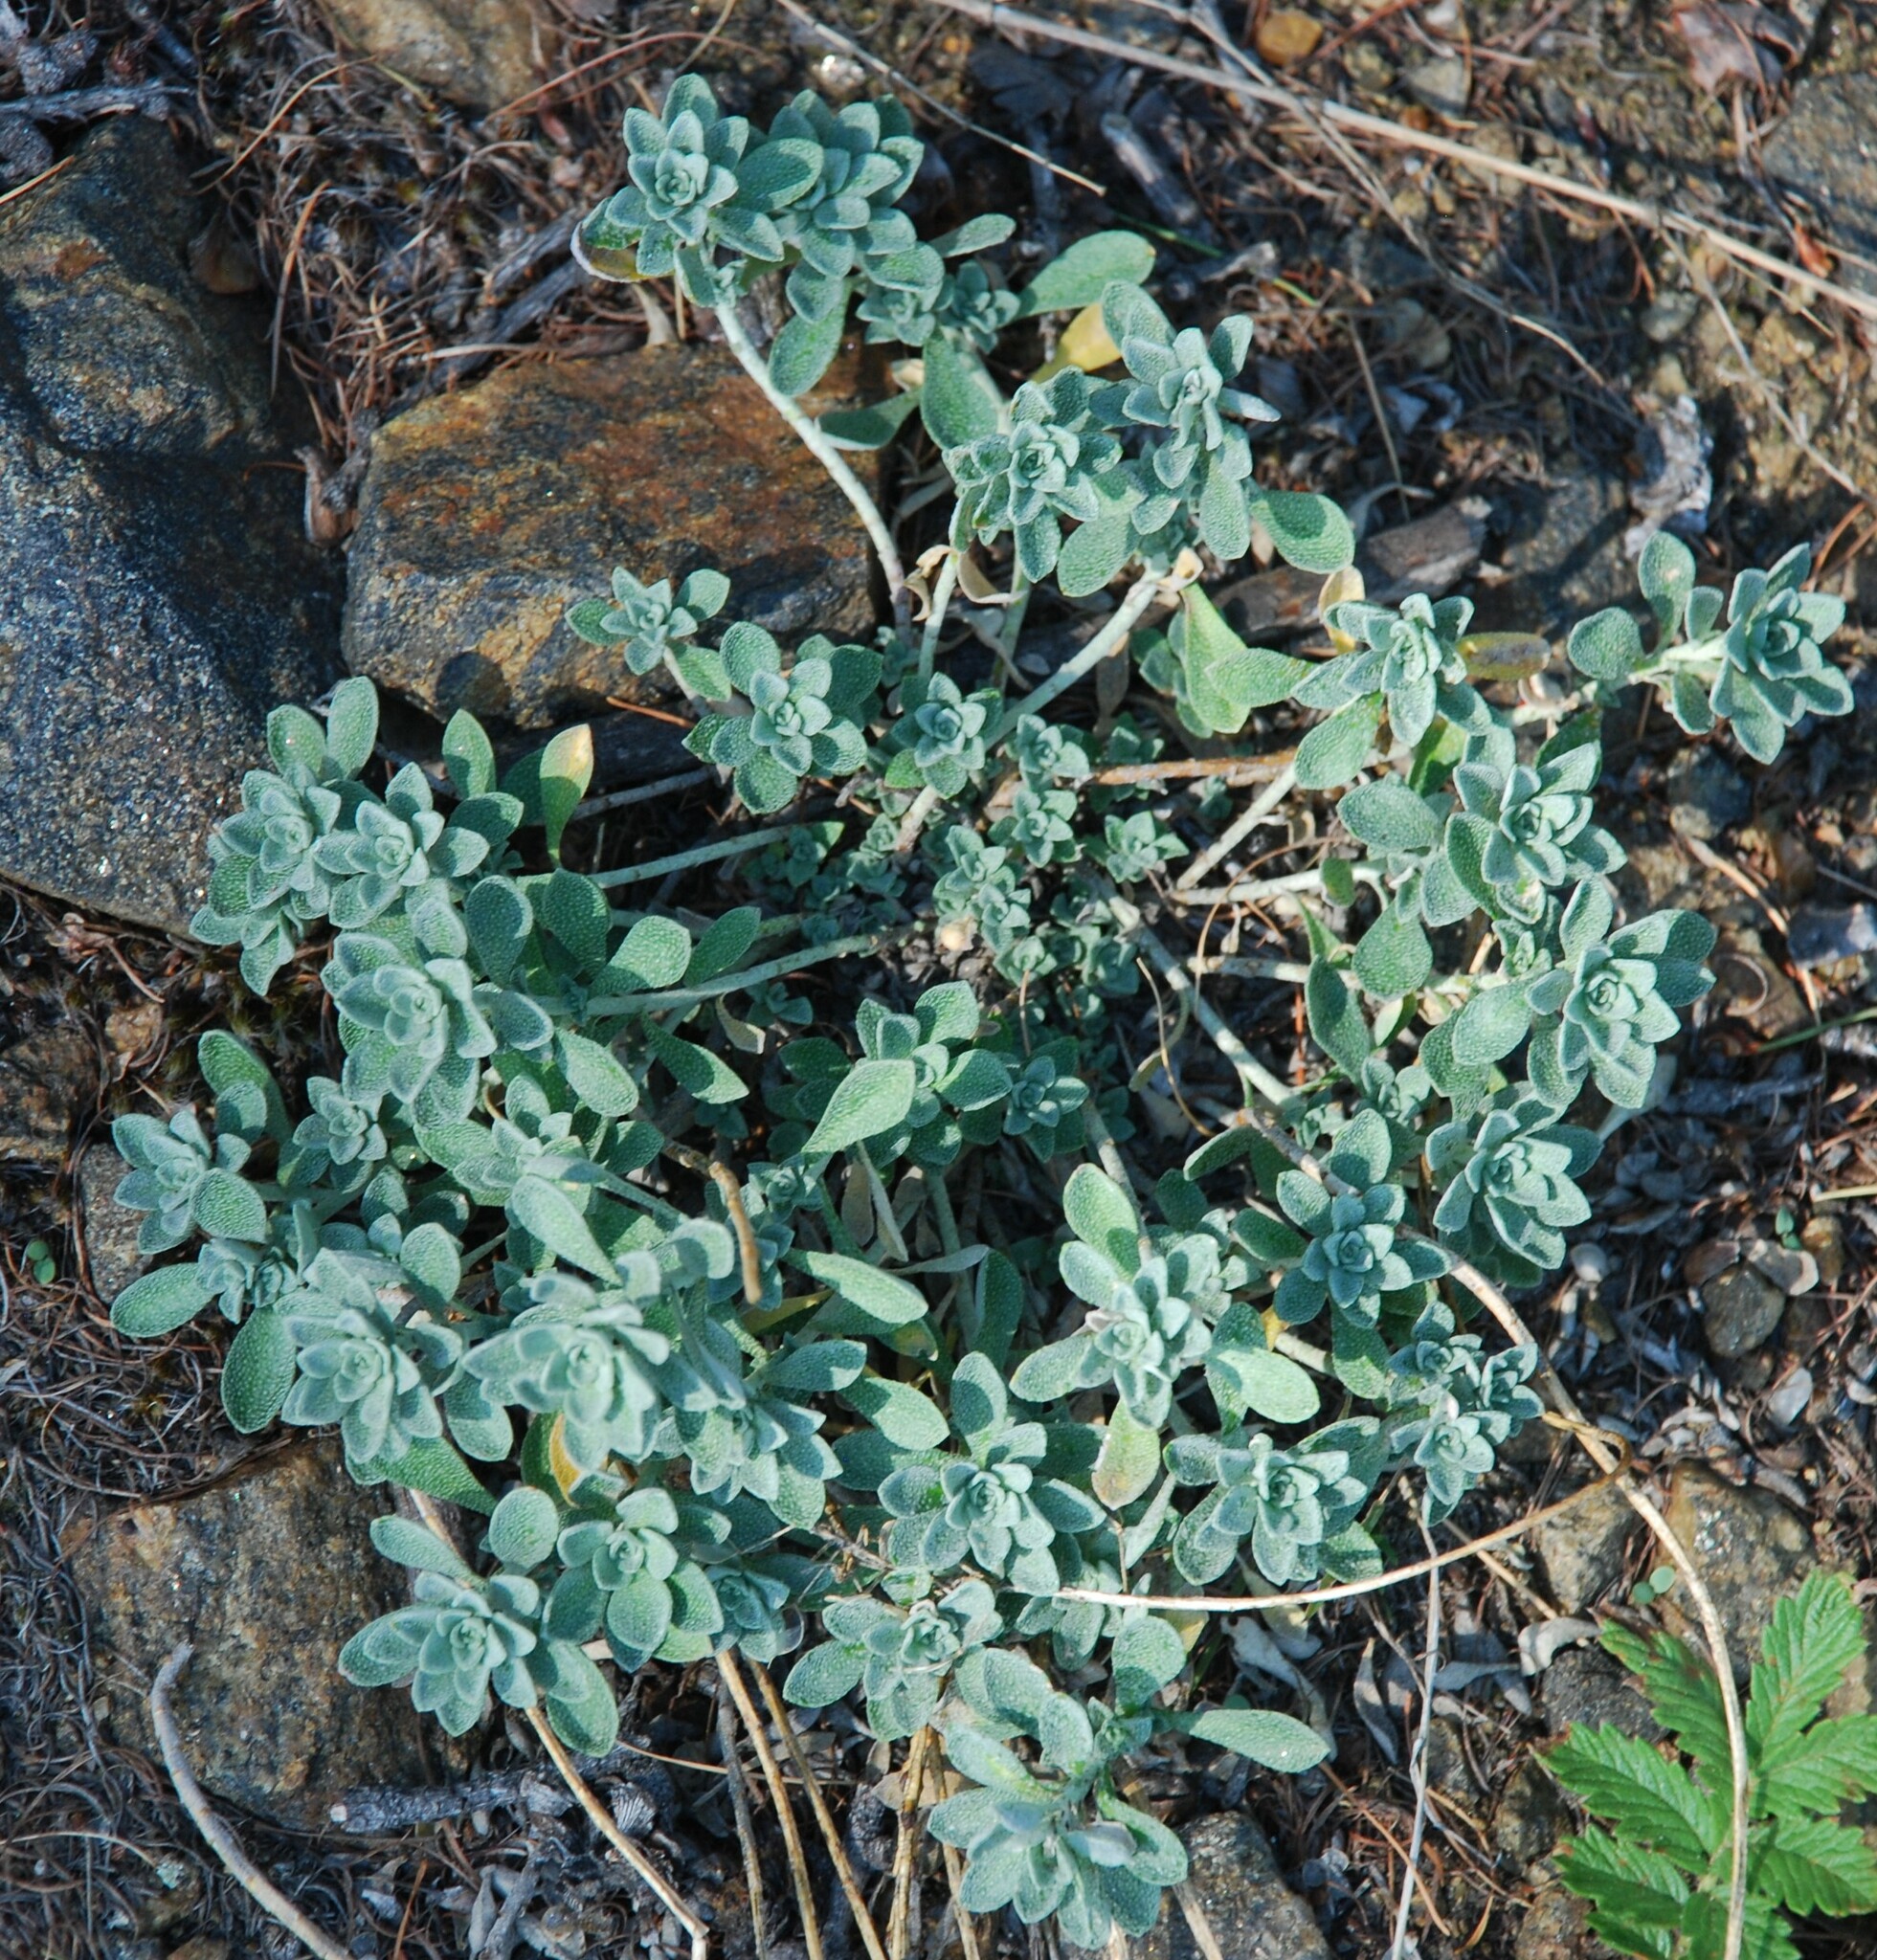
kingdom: Plantae
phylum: Tracheophyta
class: Magnoliopsida
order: Brassicales
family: Brassicaceae
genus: Odontarrhena
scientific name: Odontarrhena obovata
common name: American alyssum
